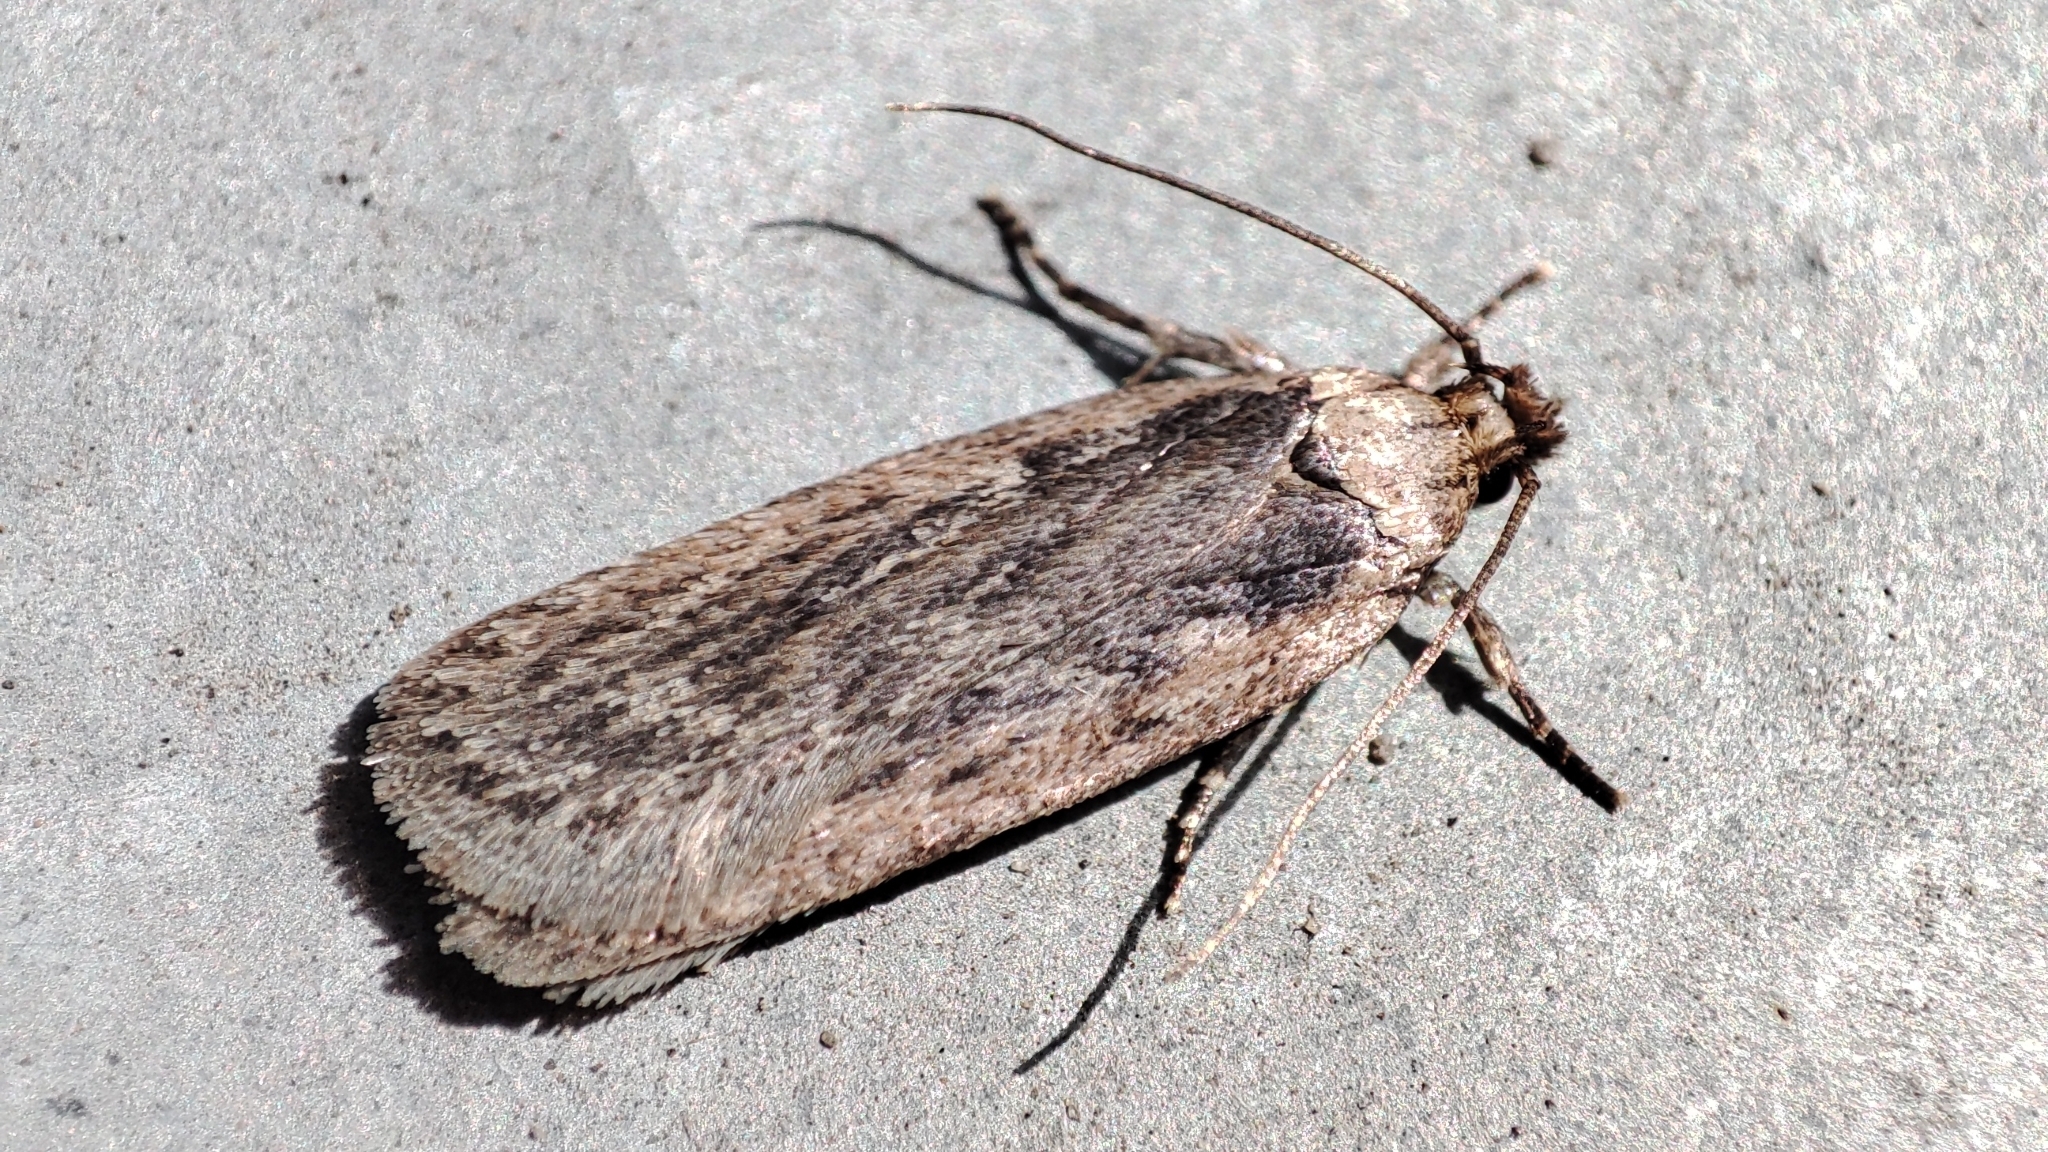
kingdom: Animalia
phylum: Arthropoda
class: Insecta
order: Lepidoptera
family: Depressariidae
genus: Depressaria
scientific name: Depressaria radiella
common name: Parsnip moth
